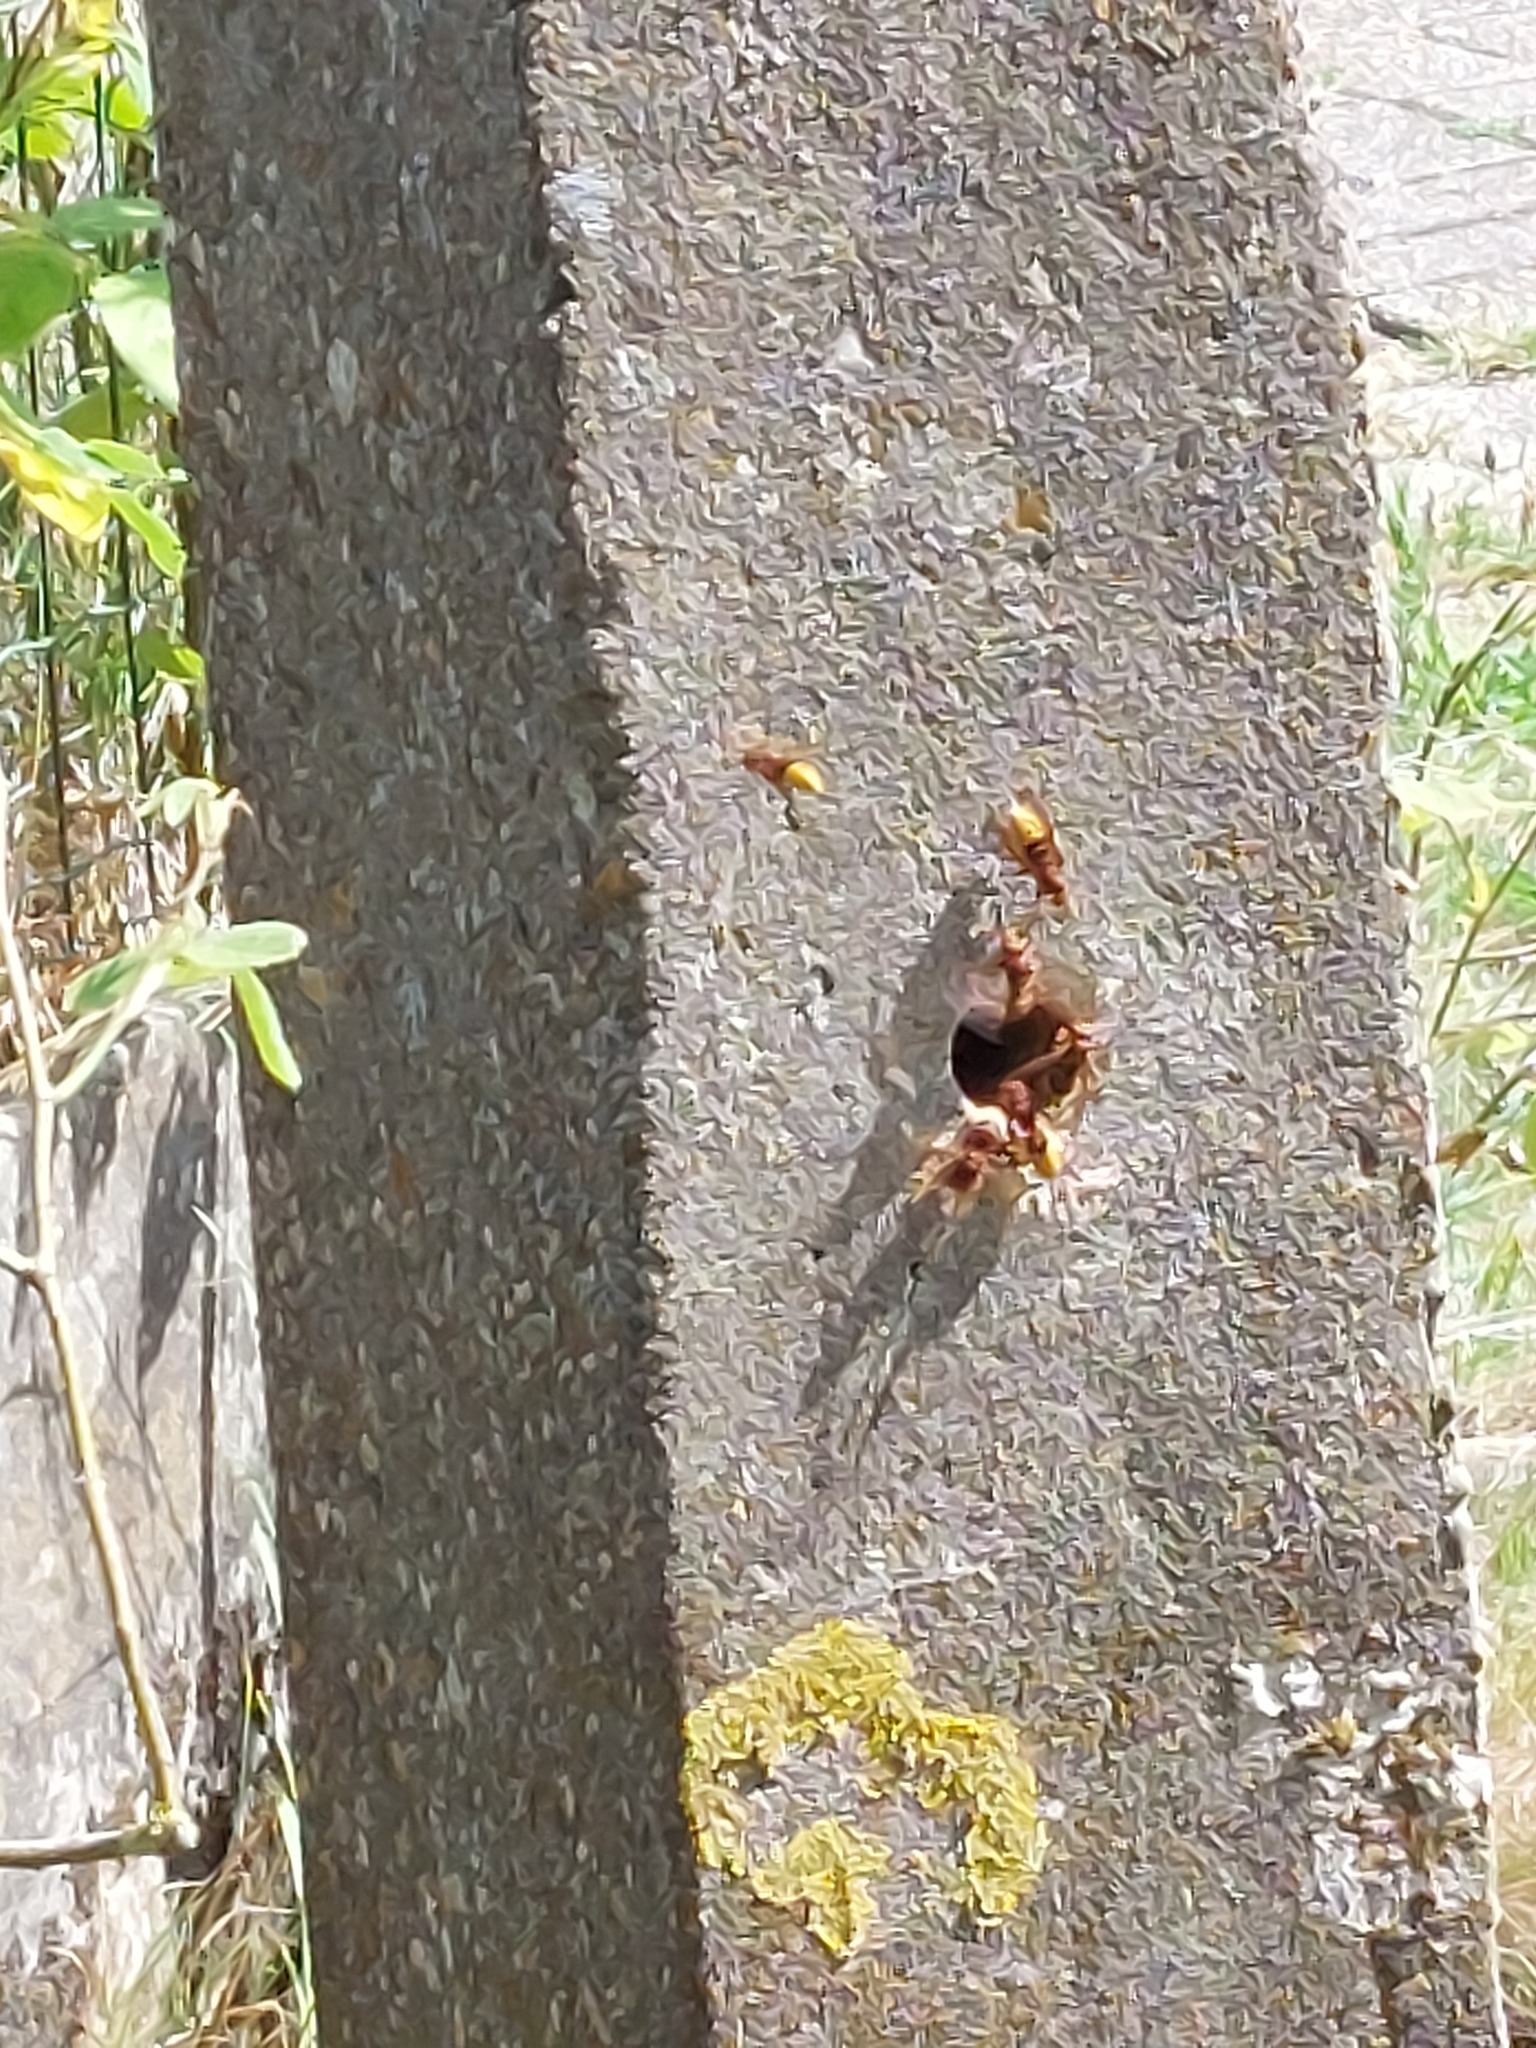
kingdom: Animalia
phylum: Arthropoda
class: Insecta
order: Hymenoptera
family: Vespidae
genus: Vespa
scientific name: Vespa crabro
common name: Hornet
